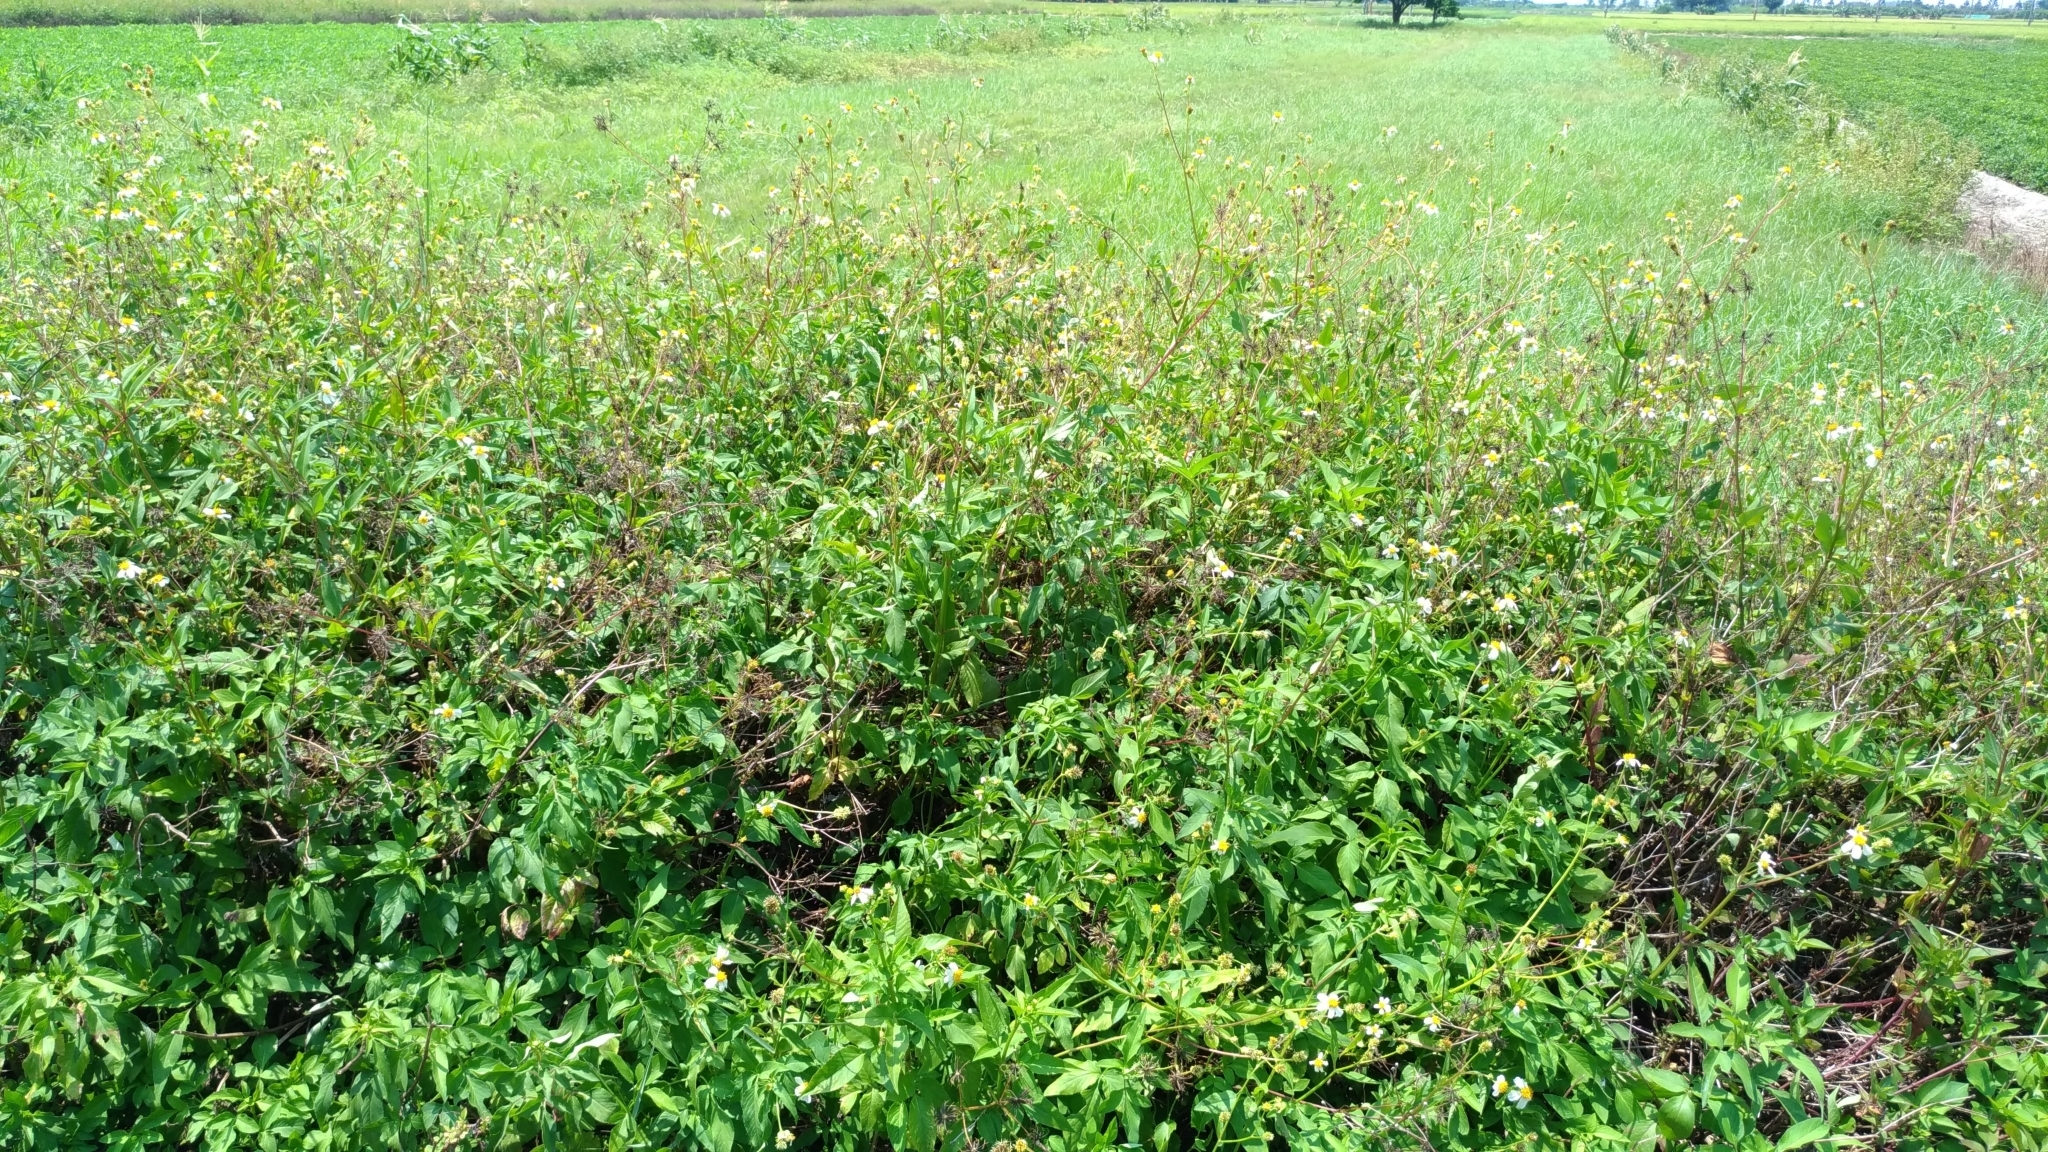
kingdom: Plantae
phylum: Tracheophyta
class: Magnoliopsida
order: Asterales
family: Asteraceae
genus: Bidens
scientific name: Bidens alba
